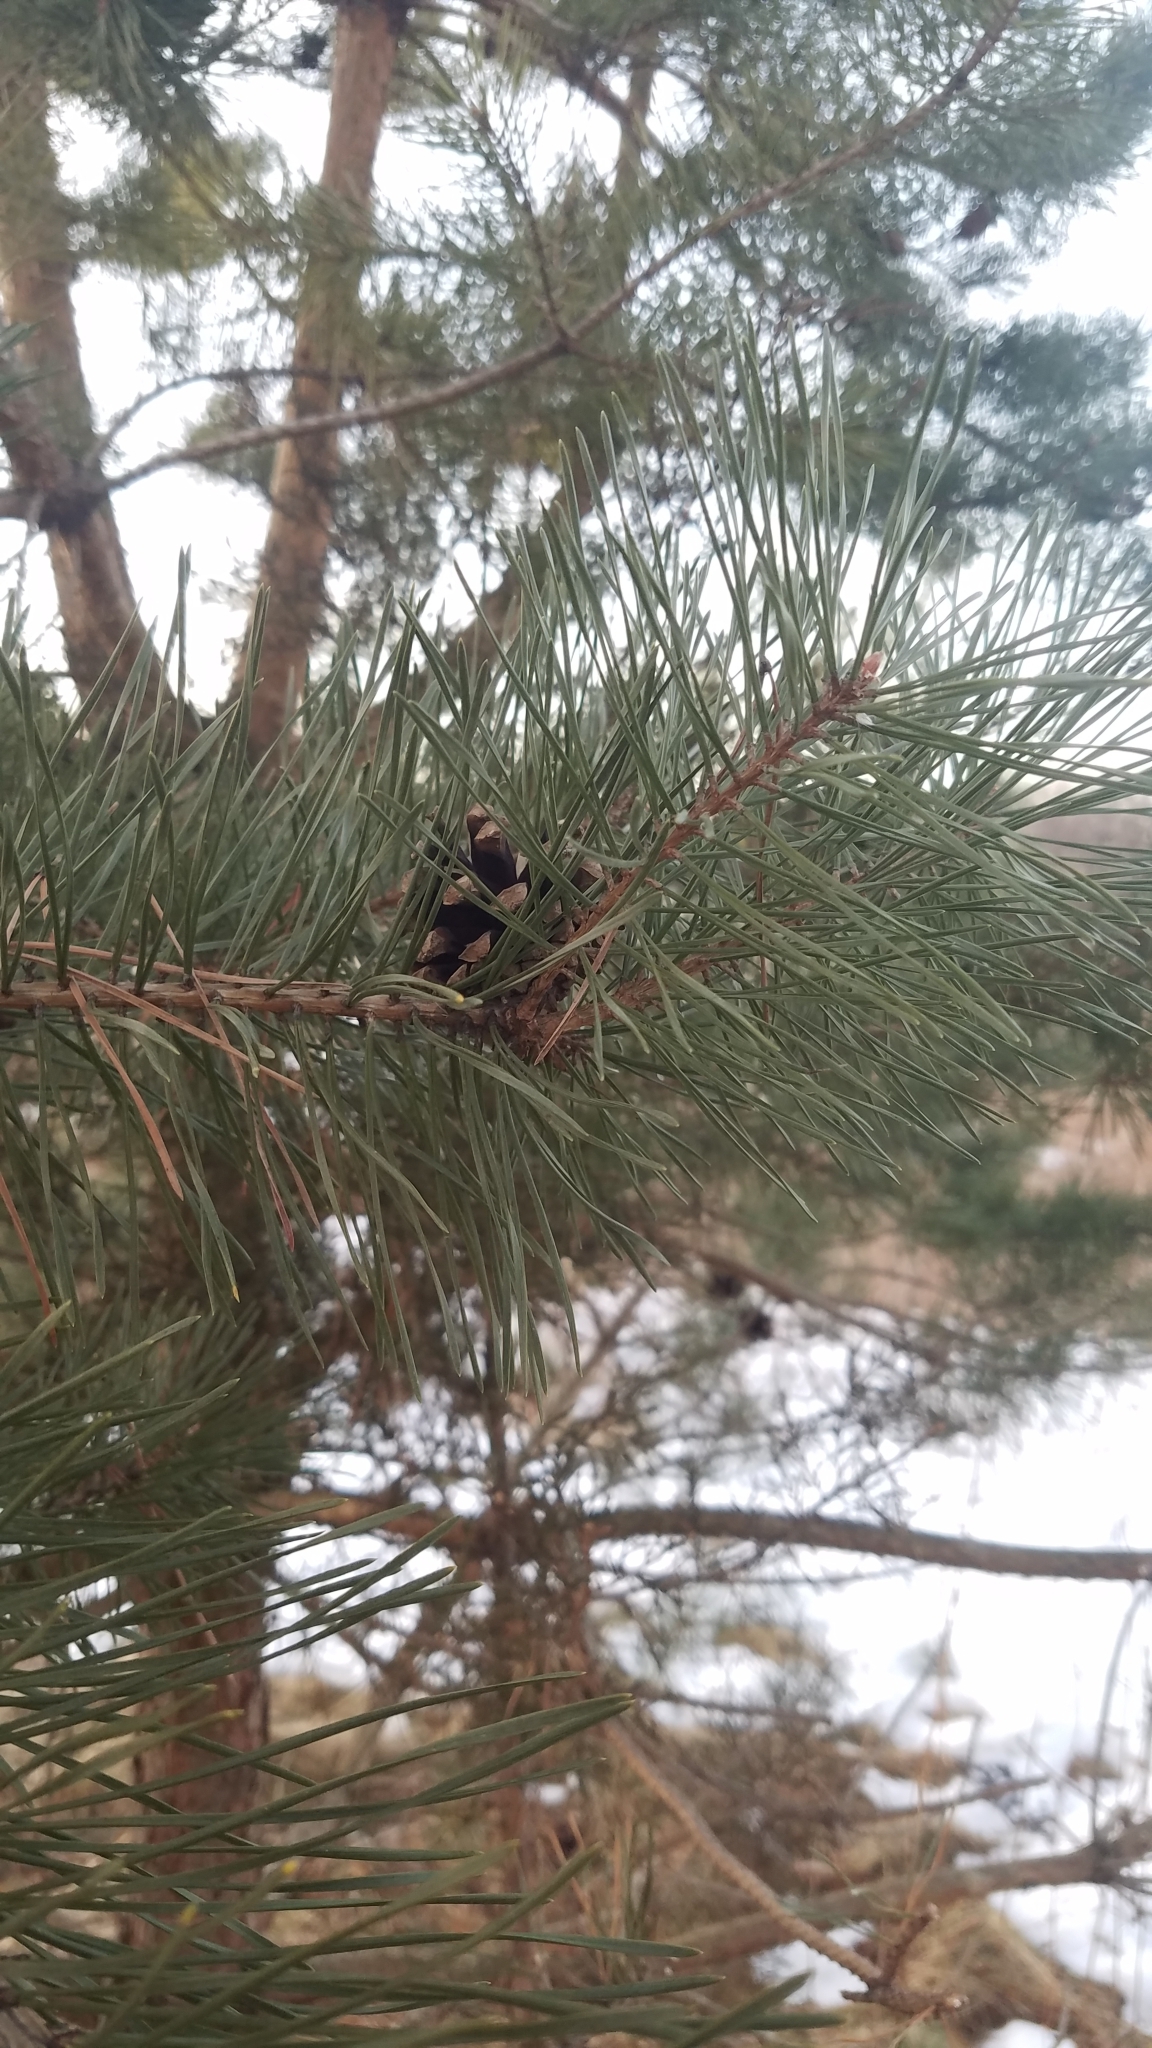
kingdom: Plantae
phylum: Tracheophyta
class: Pinopsida
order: Pinales
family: Pinaceae
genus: Pinus
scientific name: Pinus sylvestris
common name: Scots pine
